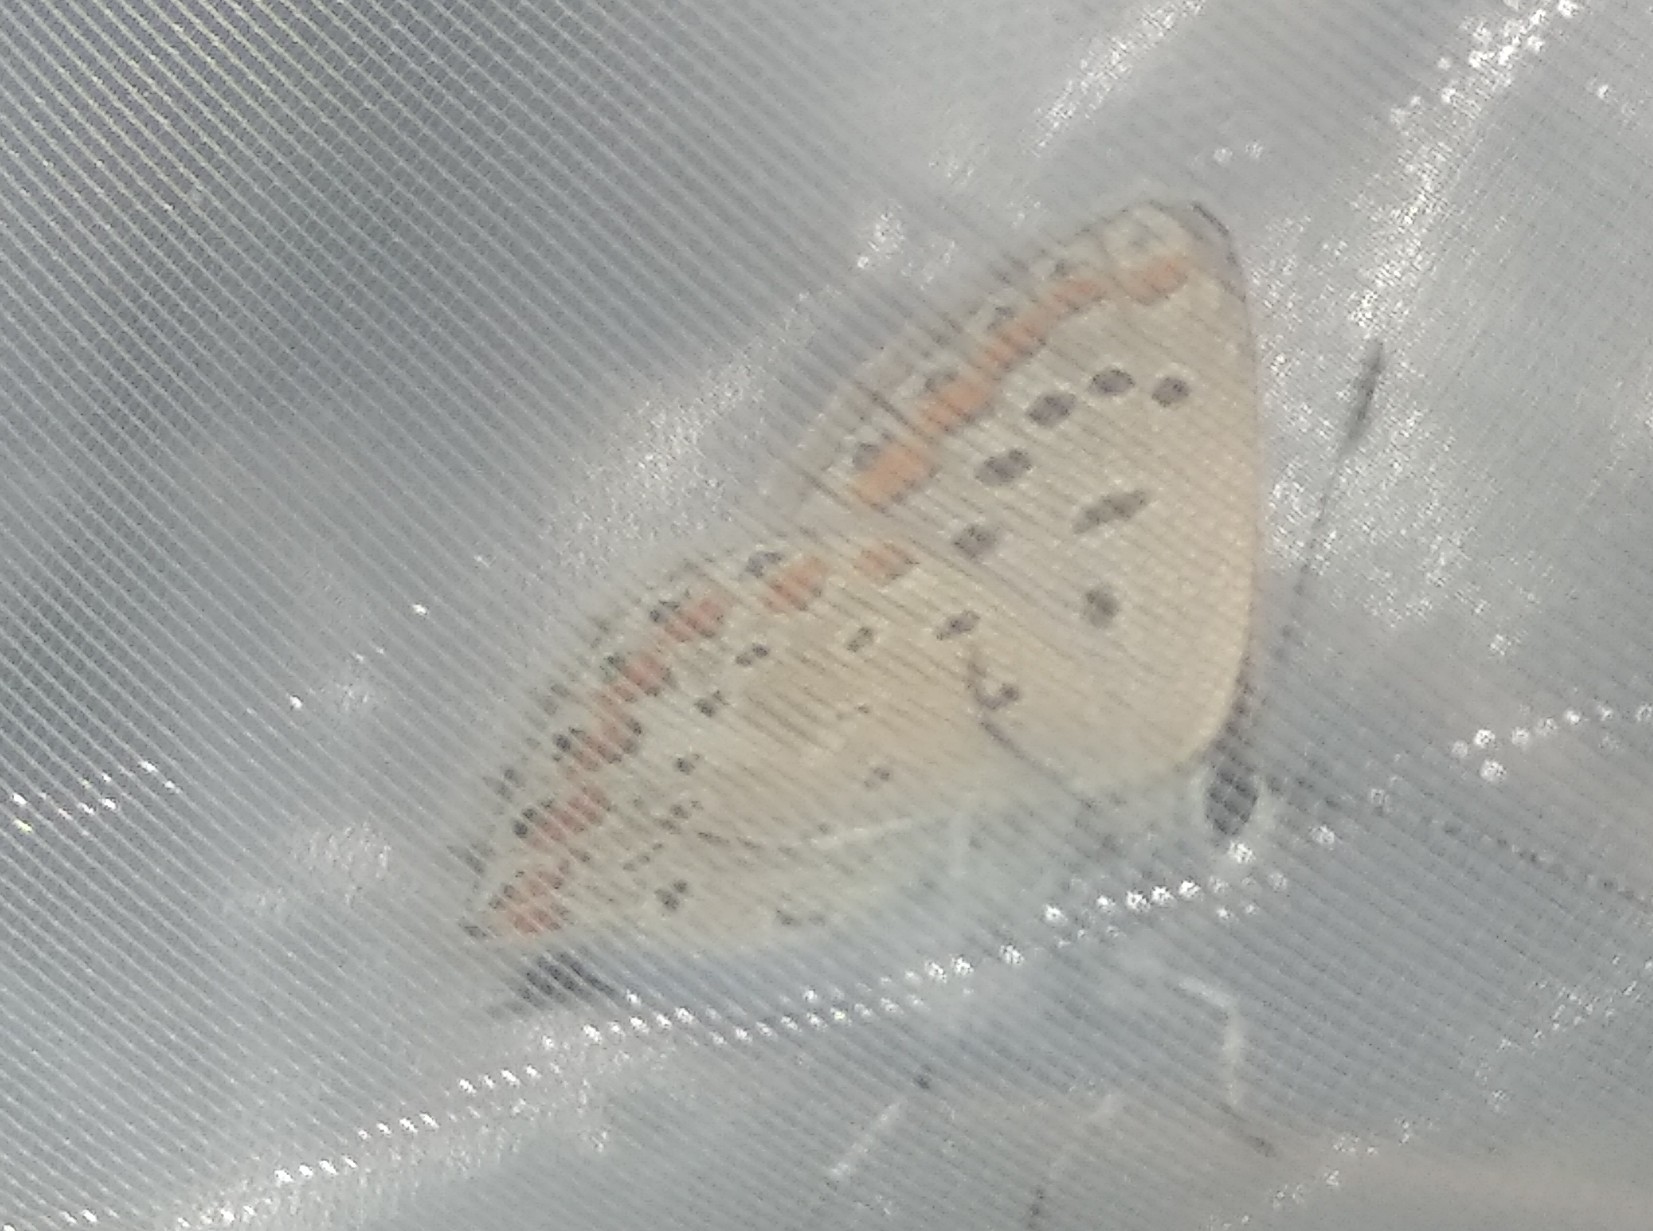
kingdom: Animalia
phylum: Arthropoda
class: Insecta
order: Lepidoptera
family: Lycaenidae
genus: Polyommatus
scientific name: Polyommatus icarus
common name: Common blue
